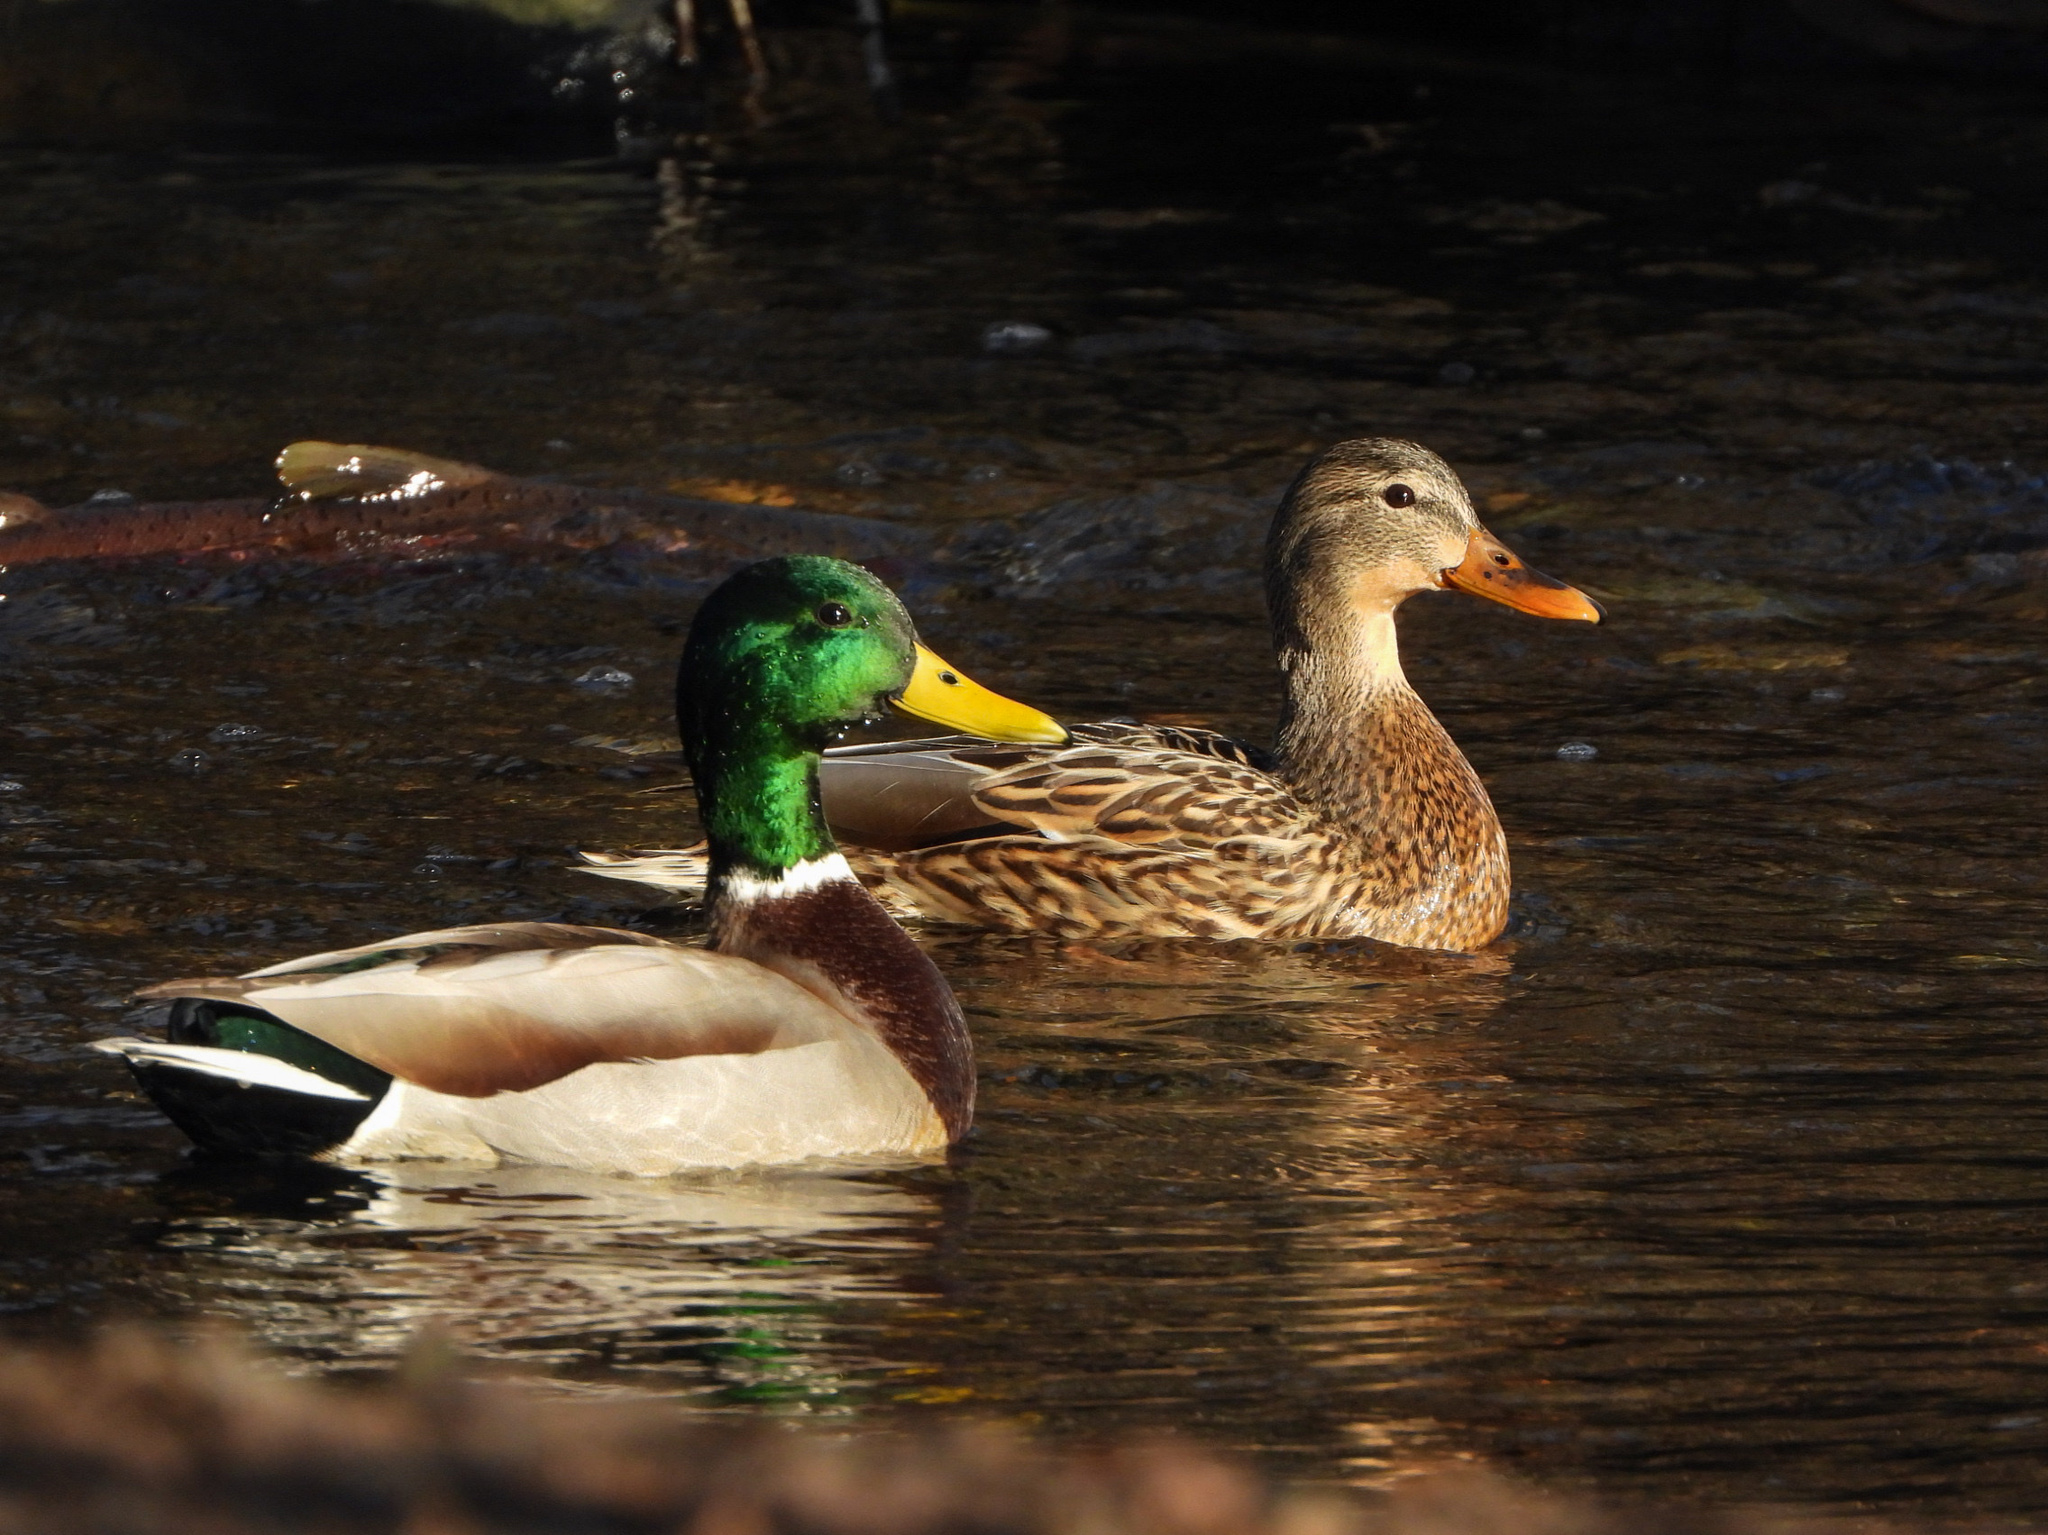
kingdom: Animalia
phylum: Chordata
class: Aves
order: Anseriformes
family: Anatidae
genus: Anas
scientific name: Anas platyrhynchos
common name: Mallard
